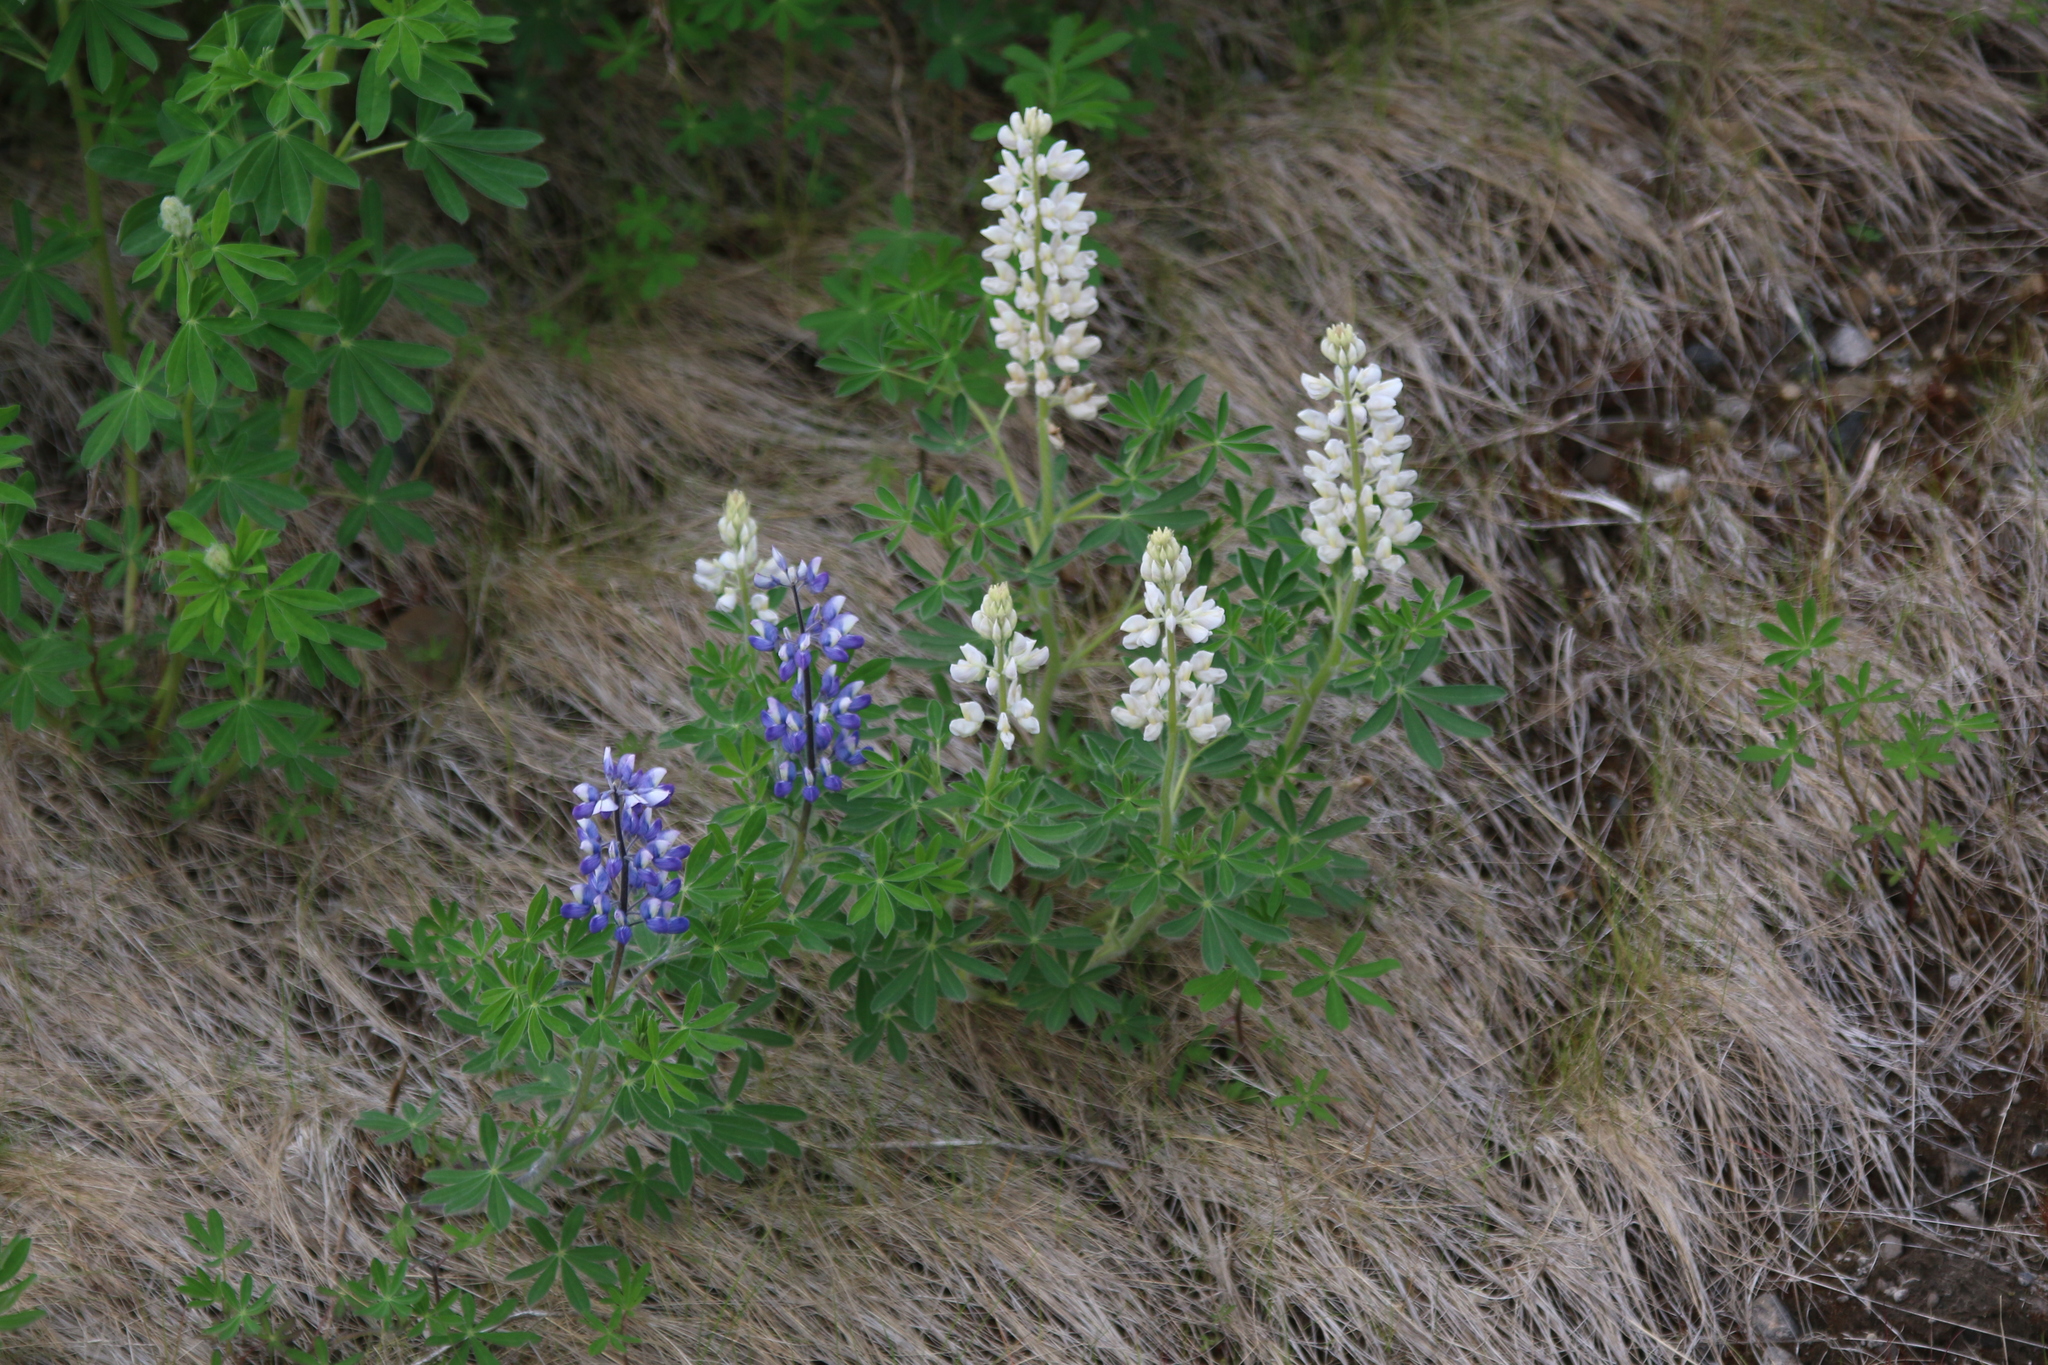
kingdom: Plantae
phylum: Tracheophyta
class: Magnoliopsida
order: Fabales
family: Fabaceae
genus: Lupinus
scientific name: Lupinus nootkatensis
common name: Nootka lupine
